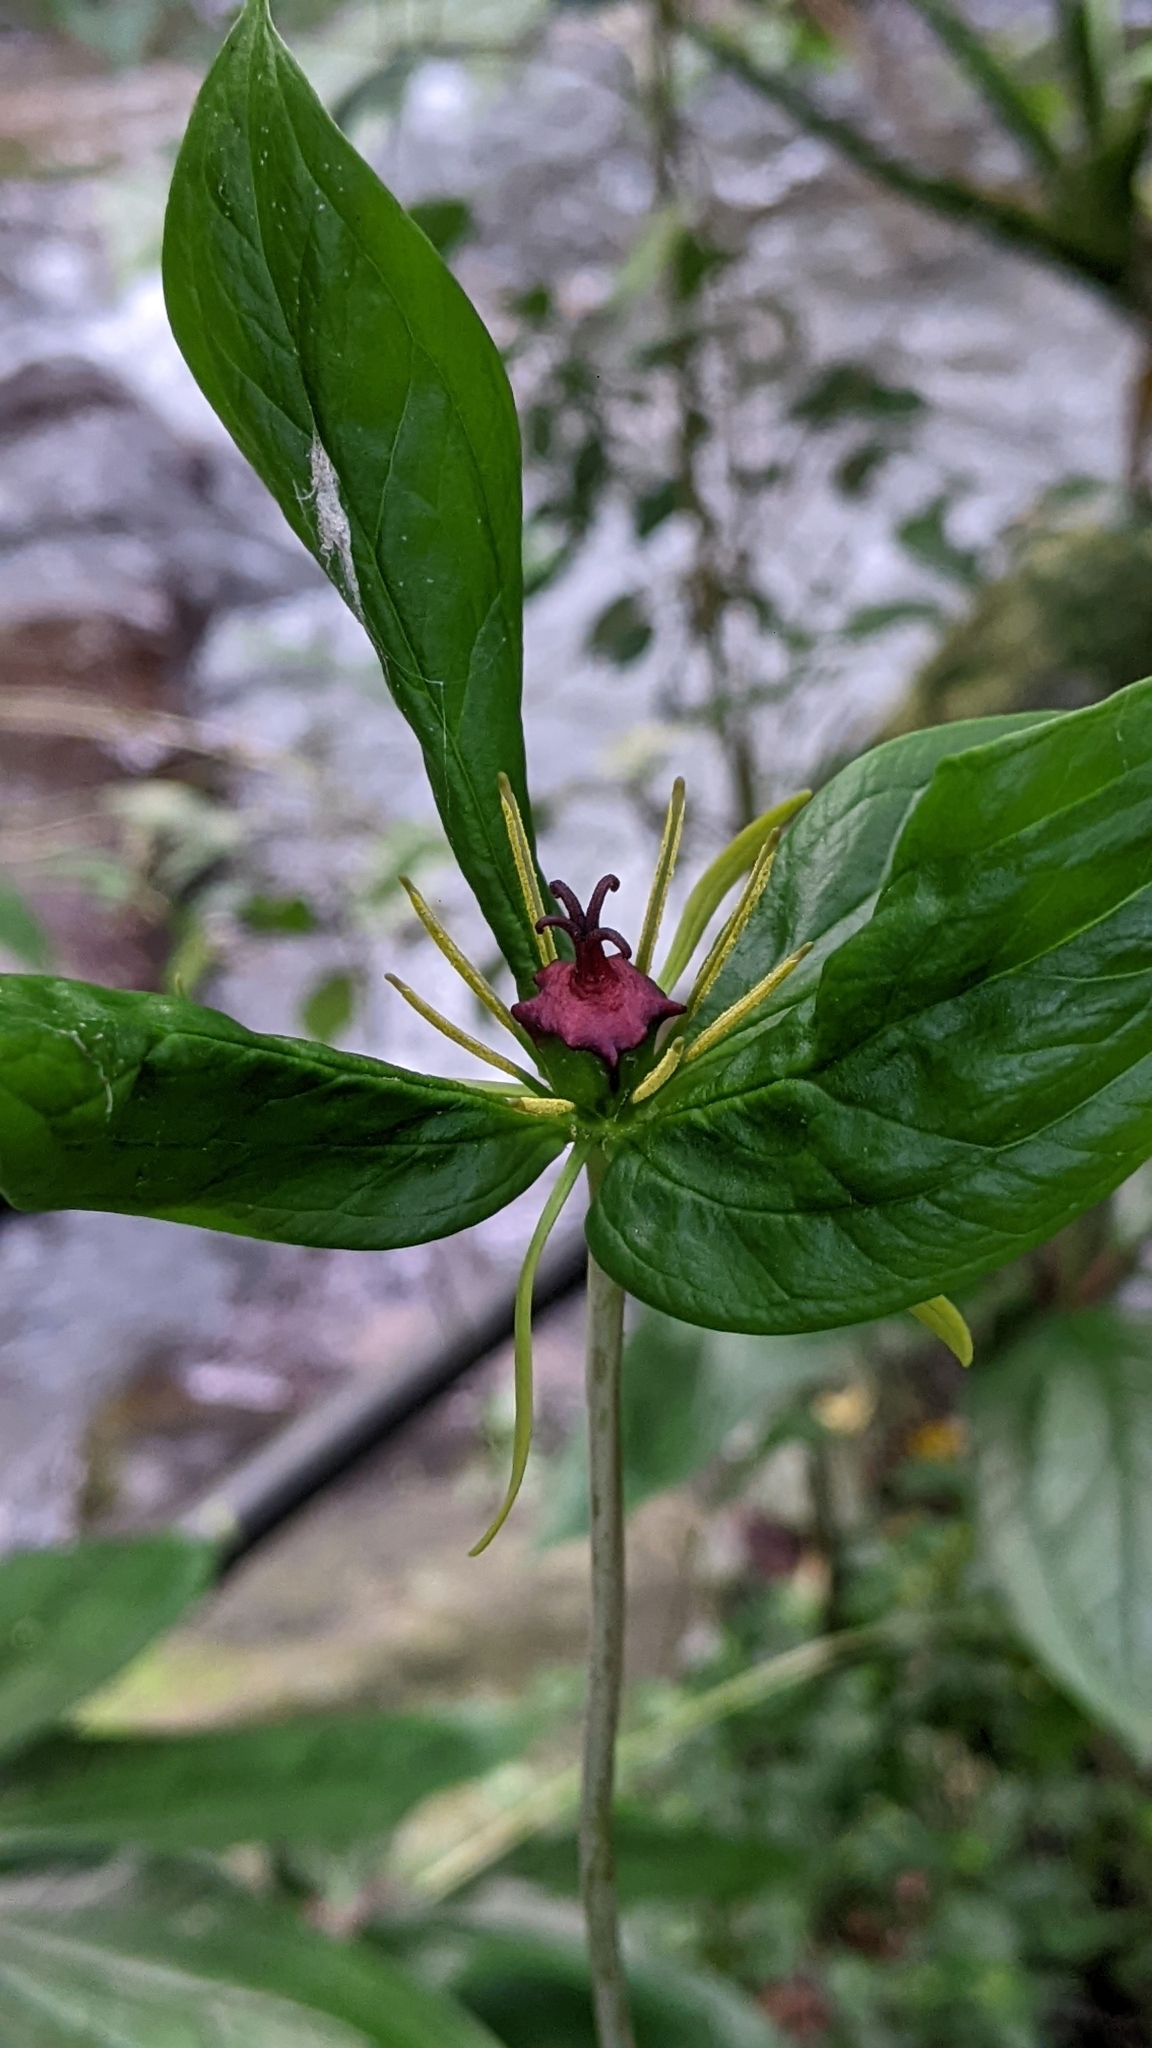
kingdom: Plantae
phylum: Tracheophyta
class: Liliopsida
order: Liliales
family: Melanthiaceae
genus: Paris
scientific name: Paris polyphylla
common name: Love apple
